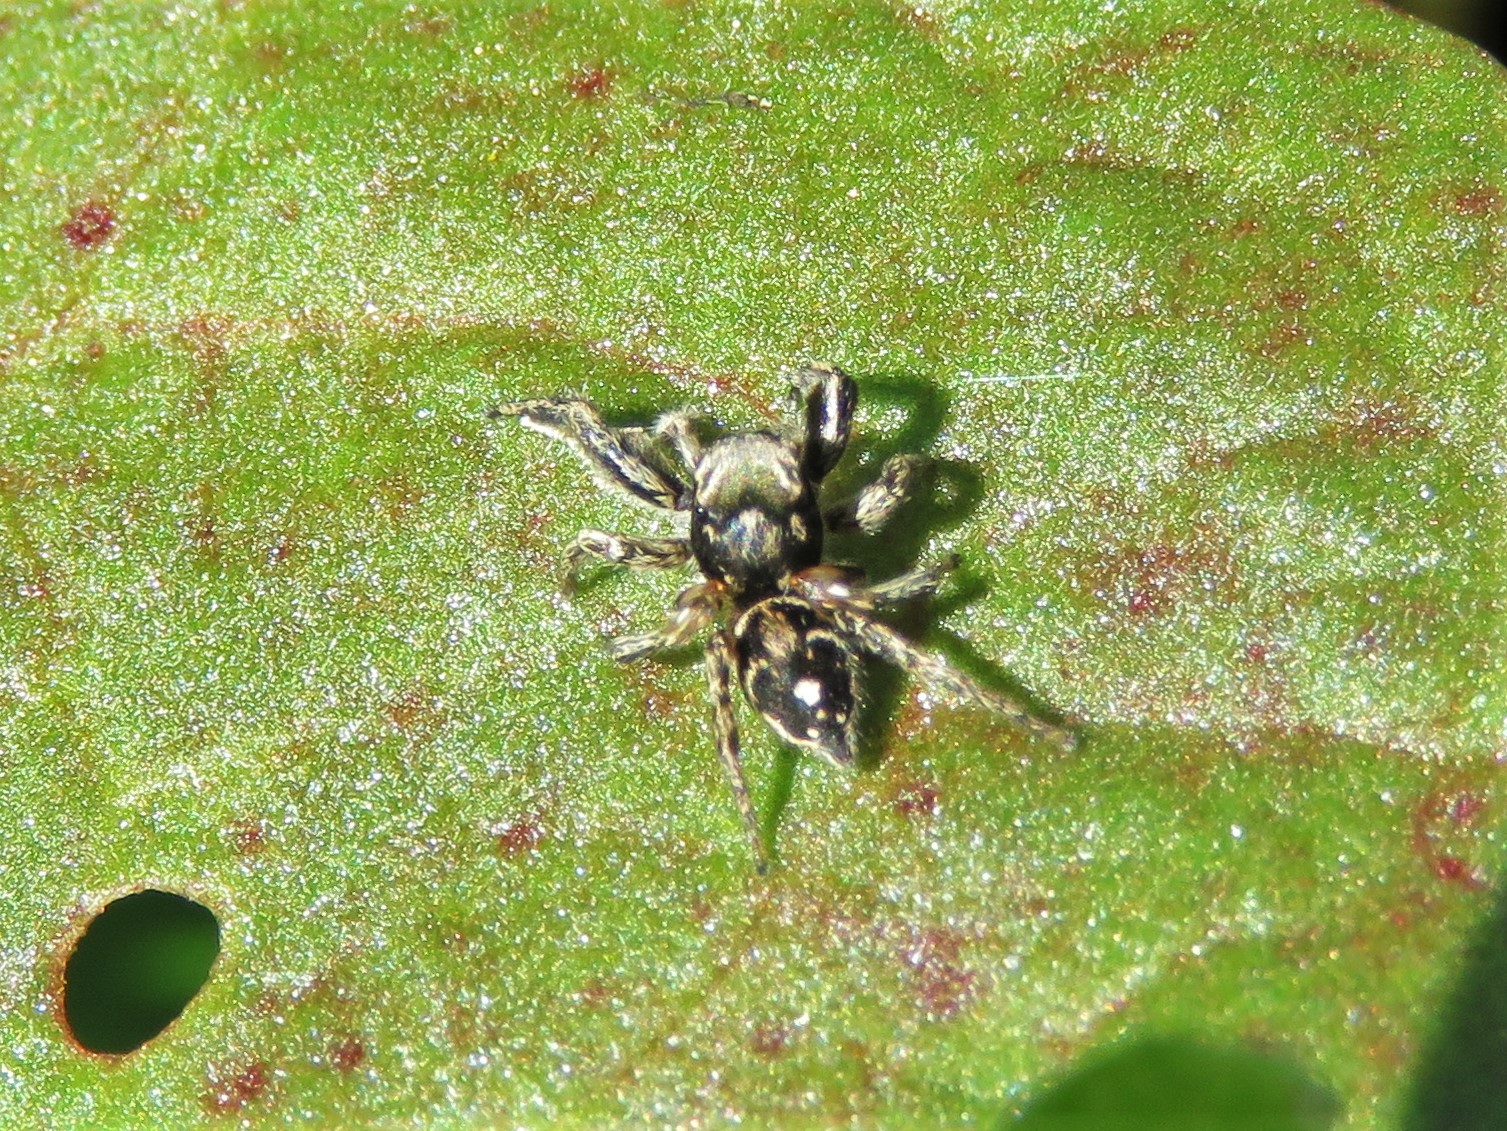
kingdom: Animalia
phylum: Arthropoda
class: Arachnida
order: Araneae
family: Salticidae
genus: Habronattus
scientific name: Habronattus coecatus
